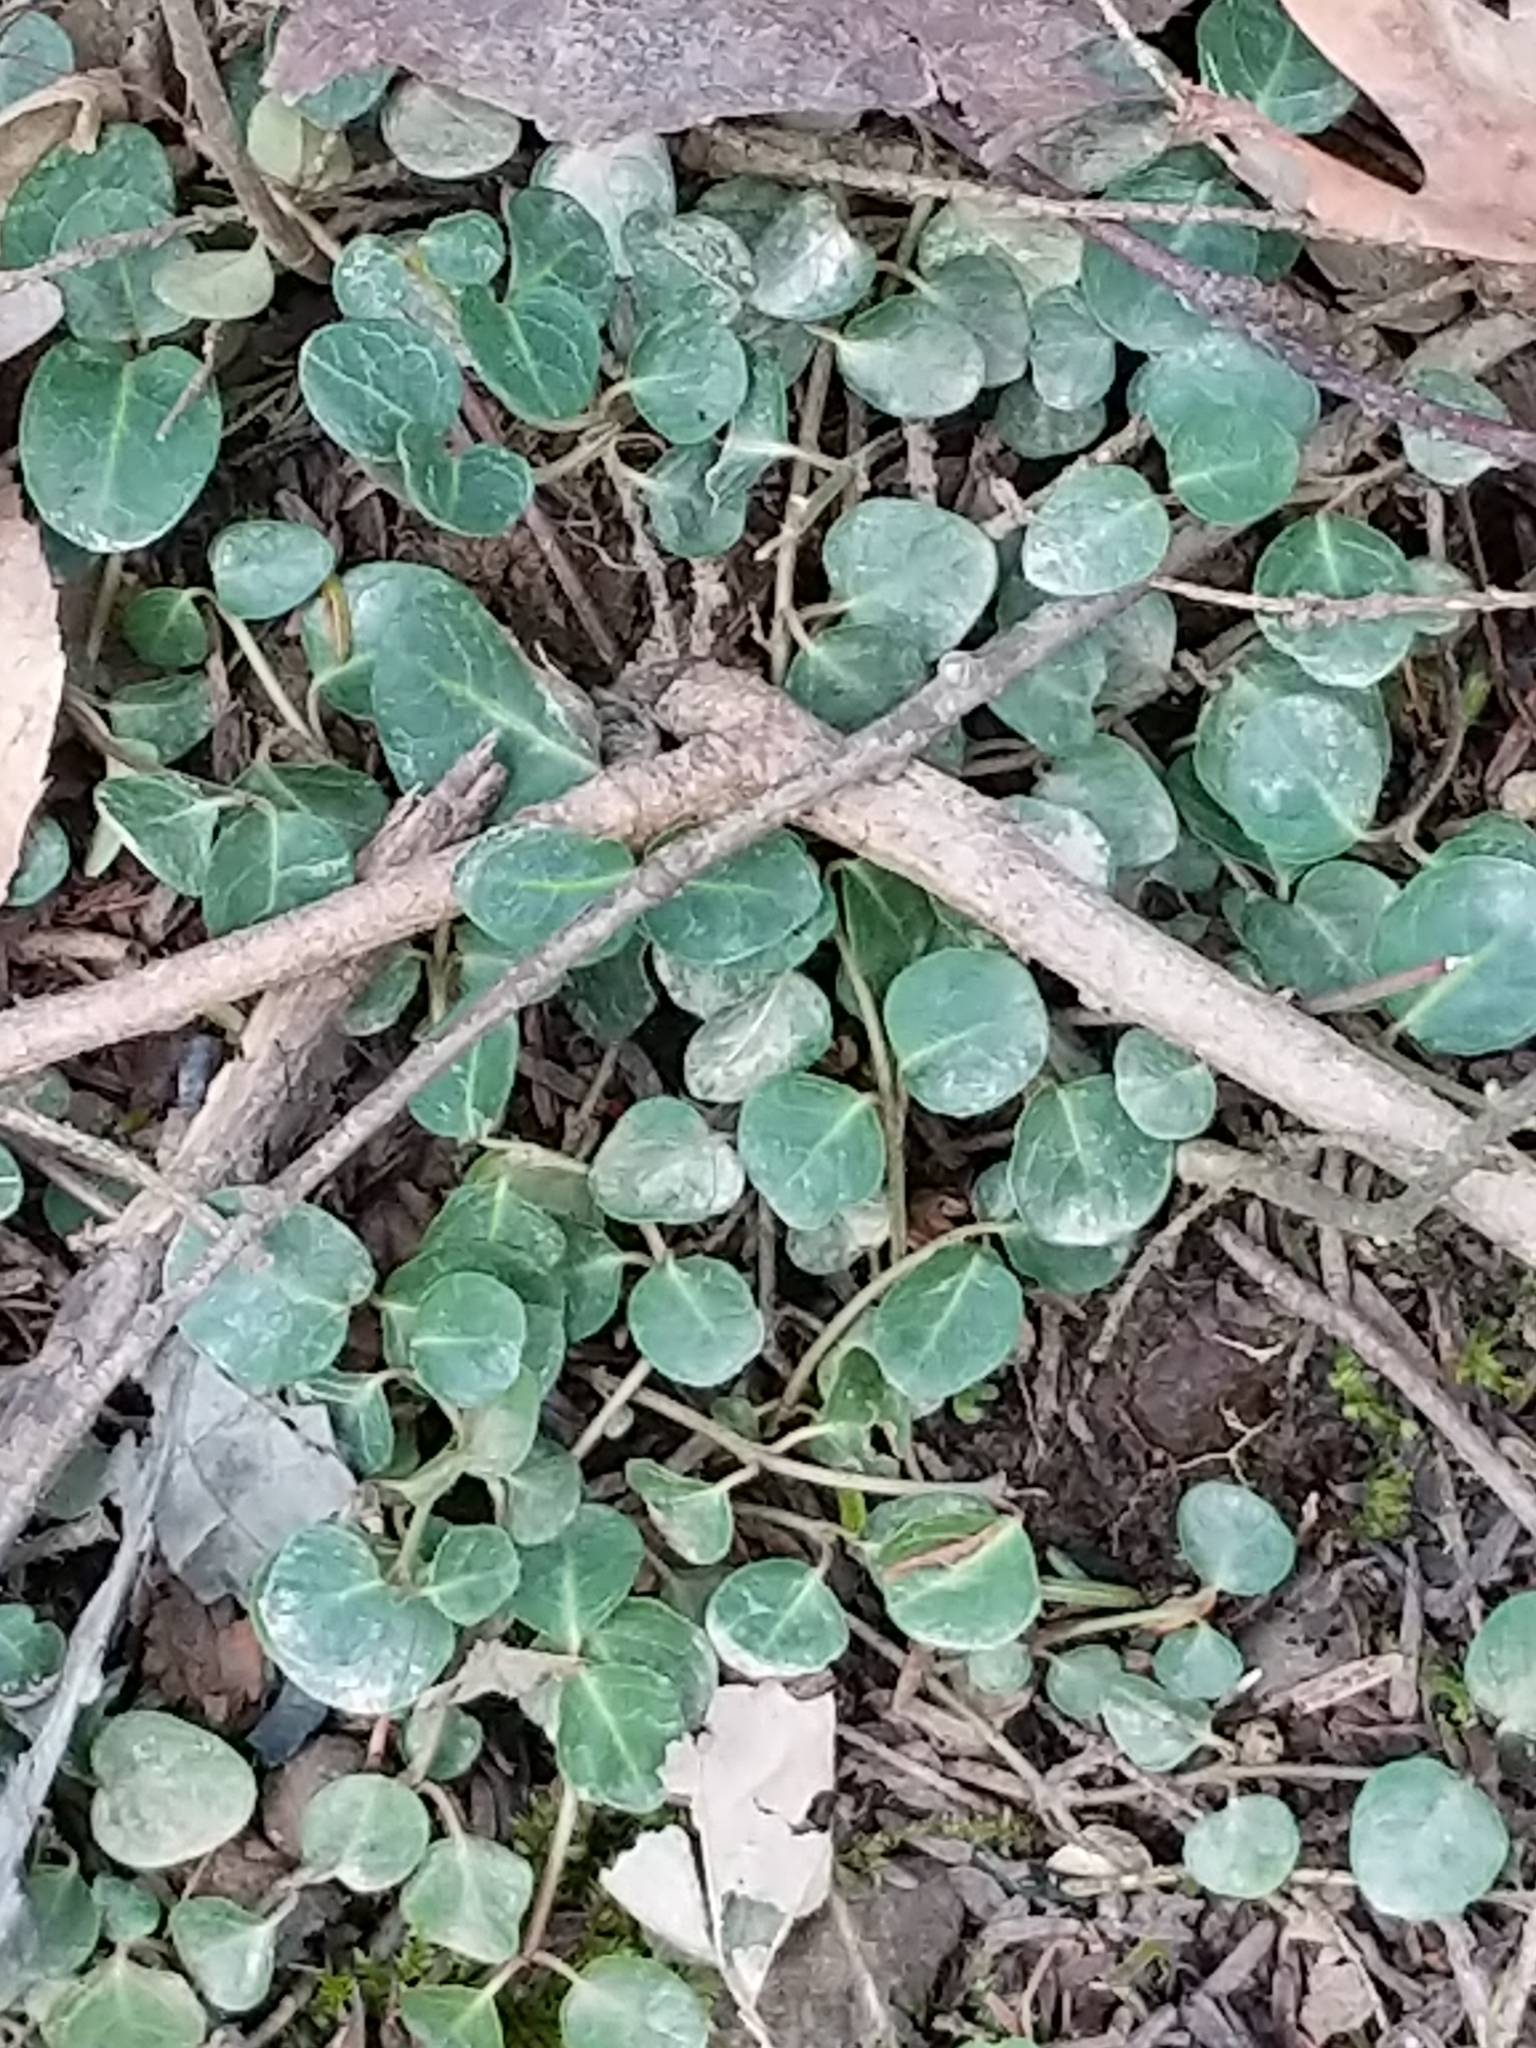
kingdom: Plantae
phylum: Tracheophyta
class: Magnoliopsida
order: Gentianales
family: Rubiaceae
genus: Mitchella
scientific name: Mitchella repens
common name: Partridge-berry
